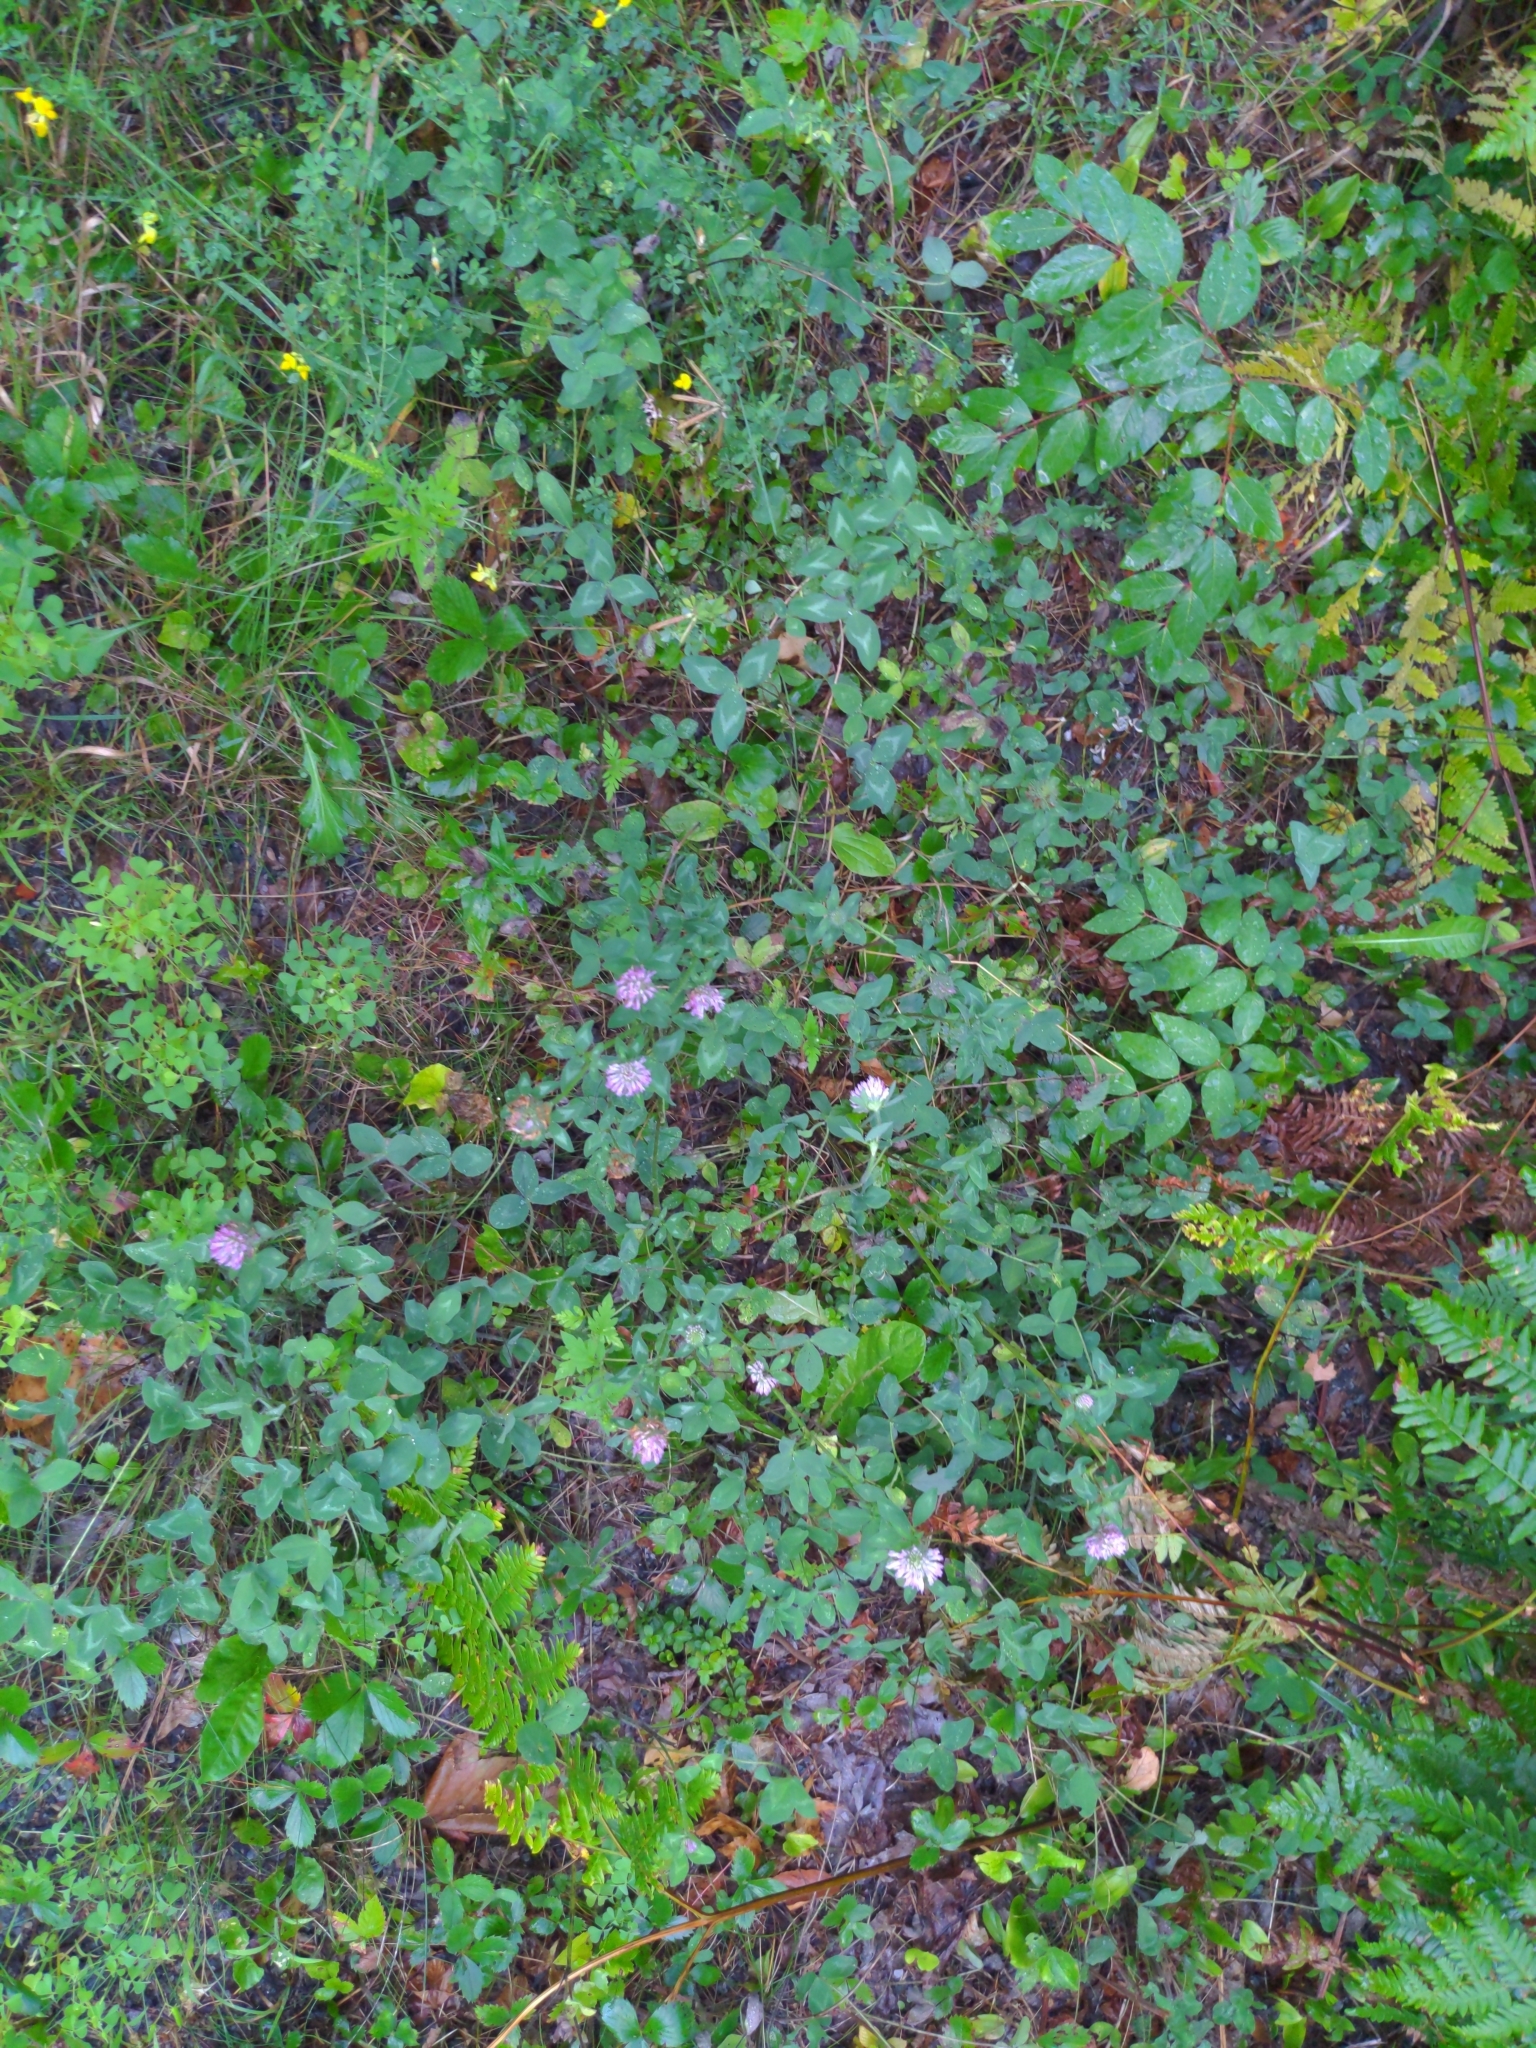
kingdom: Plantae
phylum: Tracheophyta
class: Magnoliopsida
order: Fabales
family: Fabaceae
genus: Trifolium
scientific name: Trifolium pratense
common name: Red clover
